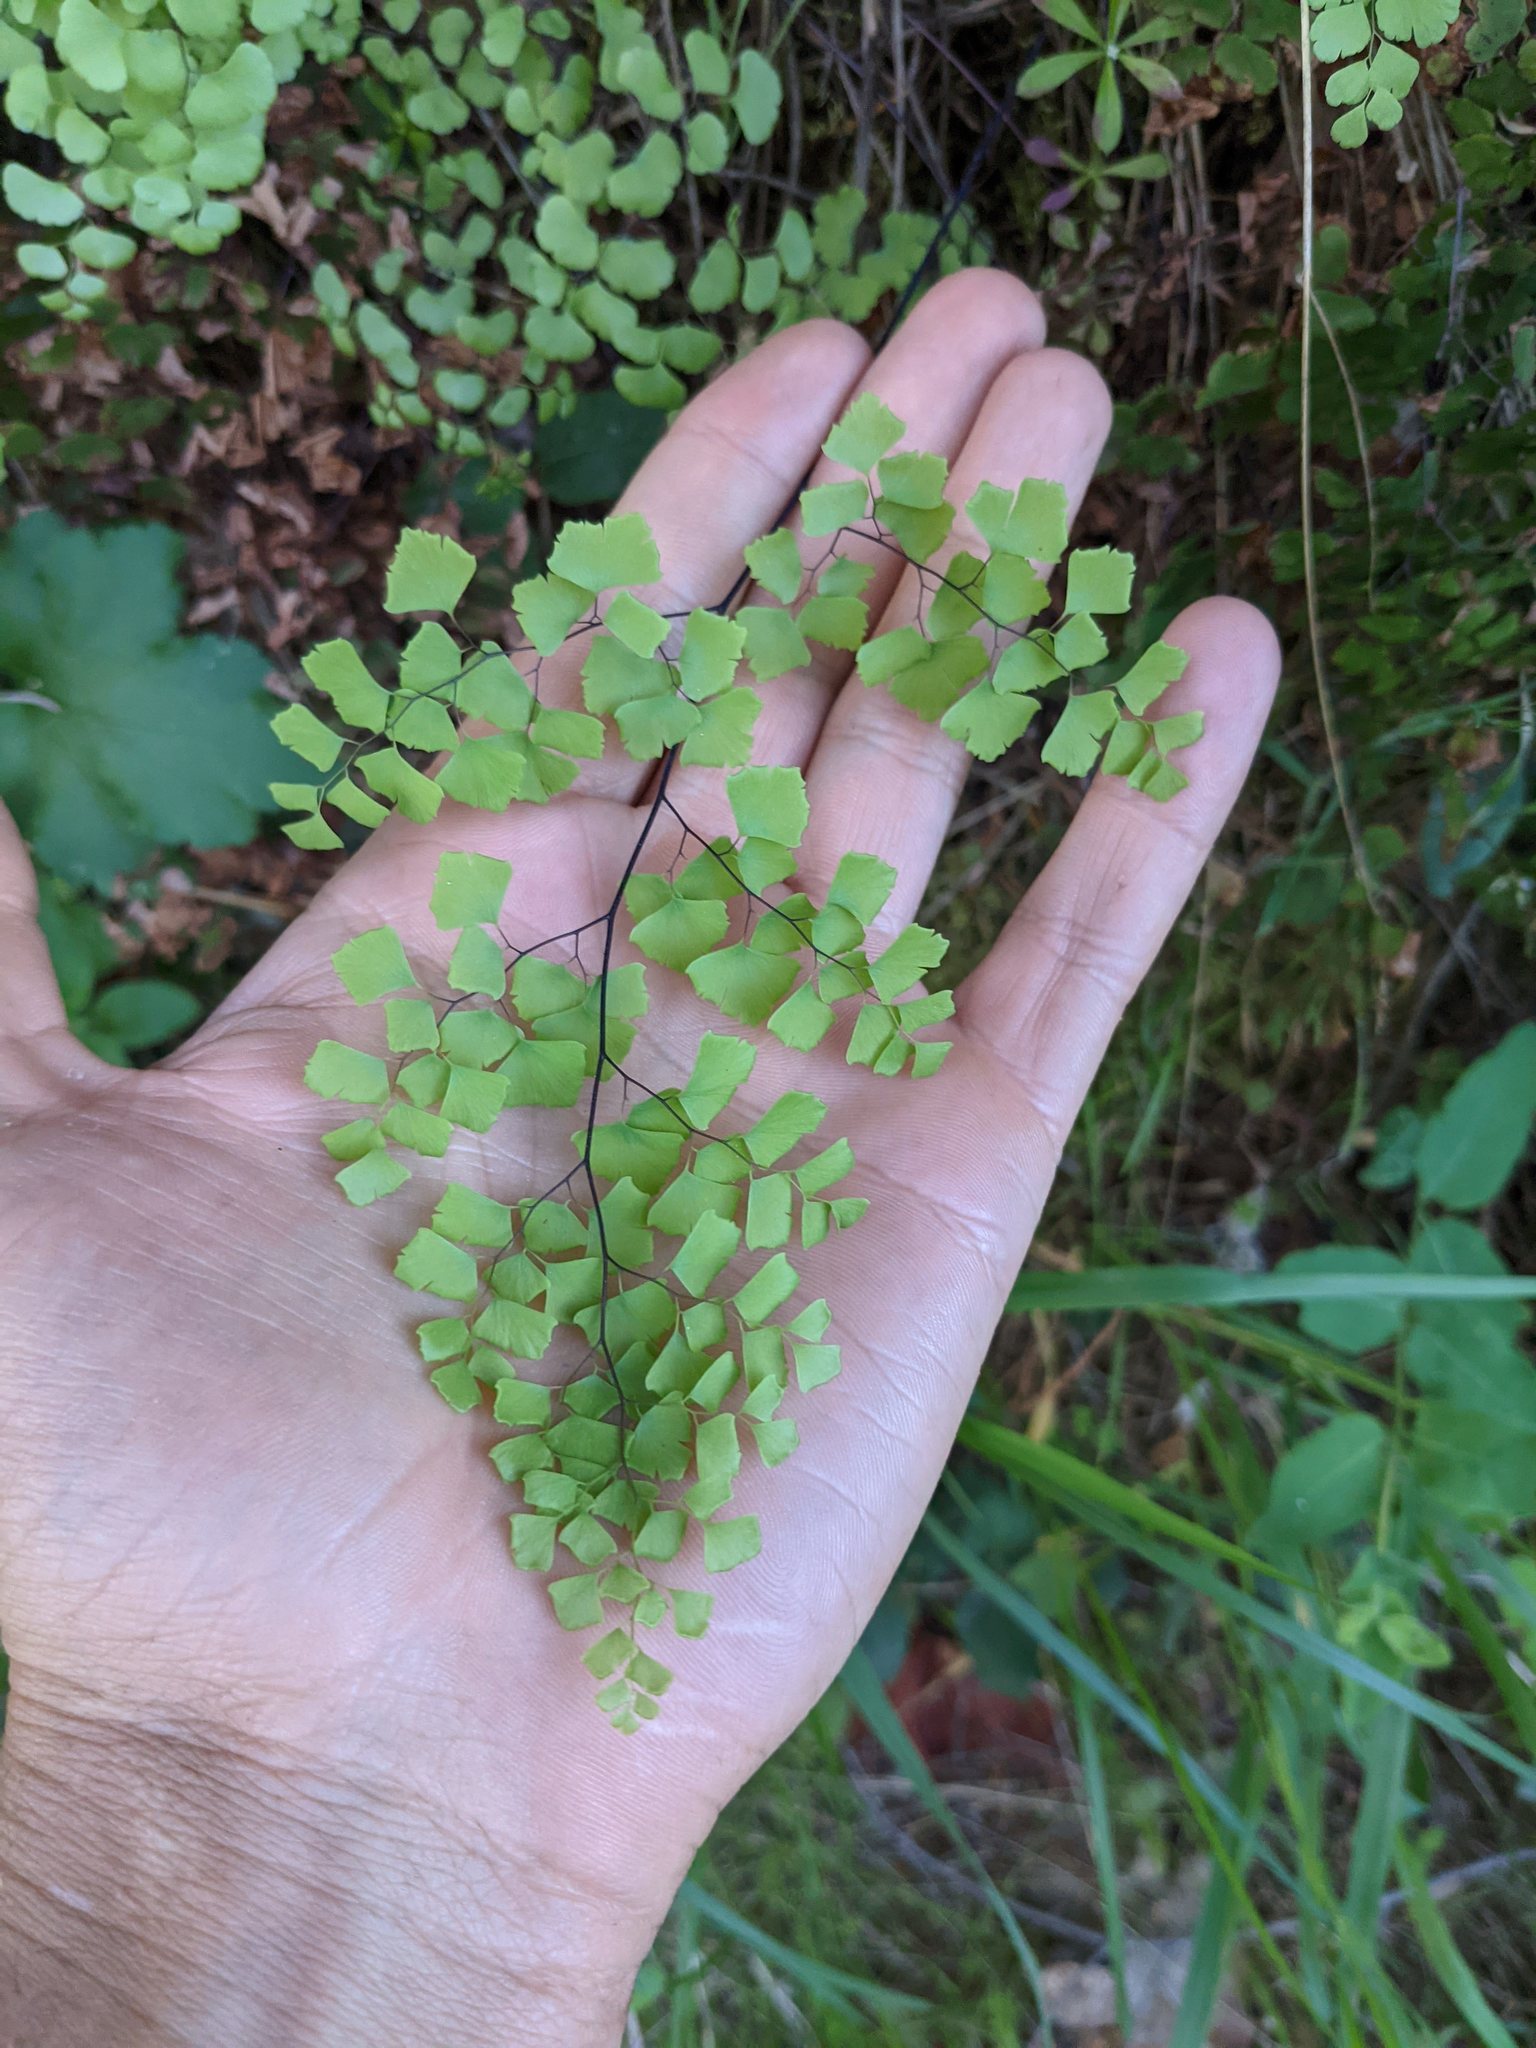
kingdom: Plantae
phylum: Tracheophyta
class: Polypodiopsida
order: Polypodiales
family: Pteridaceae
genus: Adiantum
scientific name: Adiantum shastense
